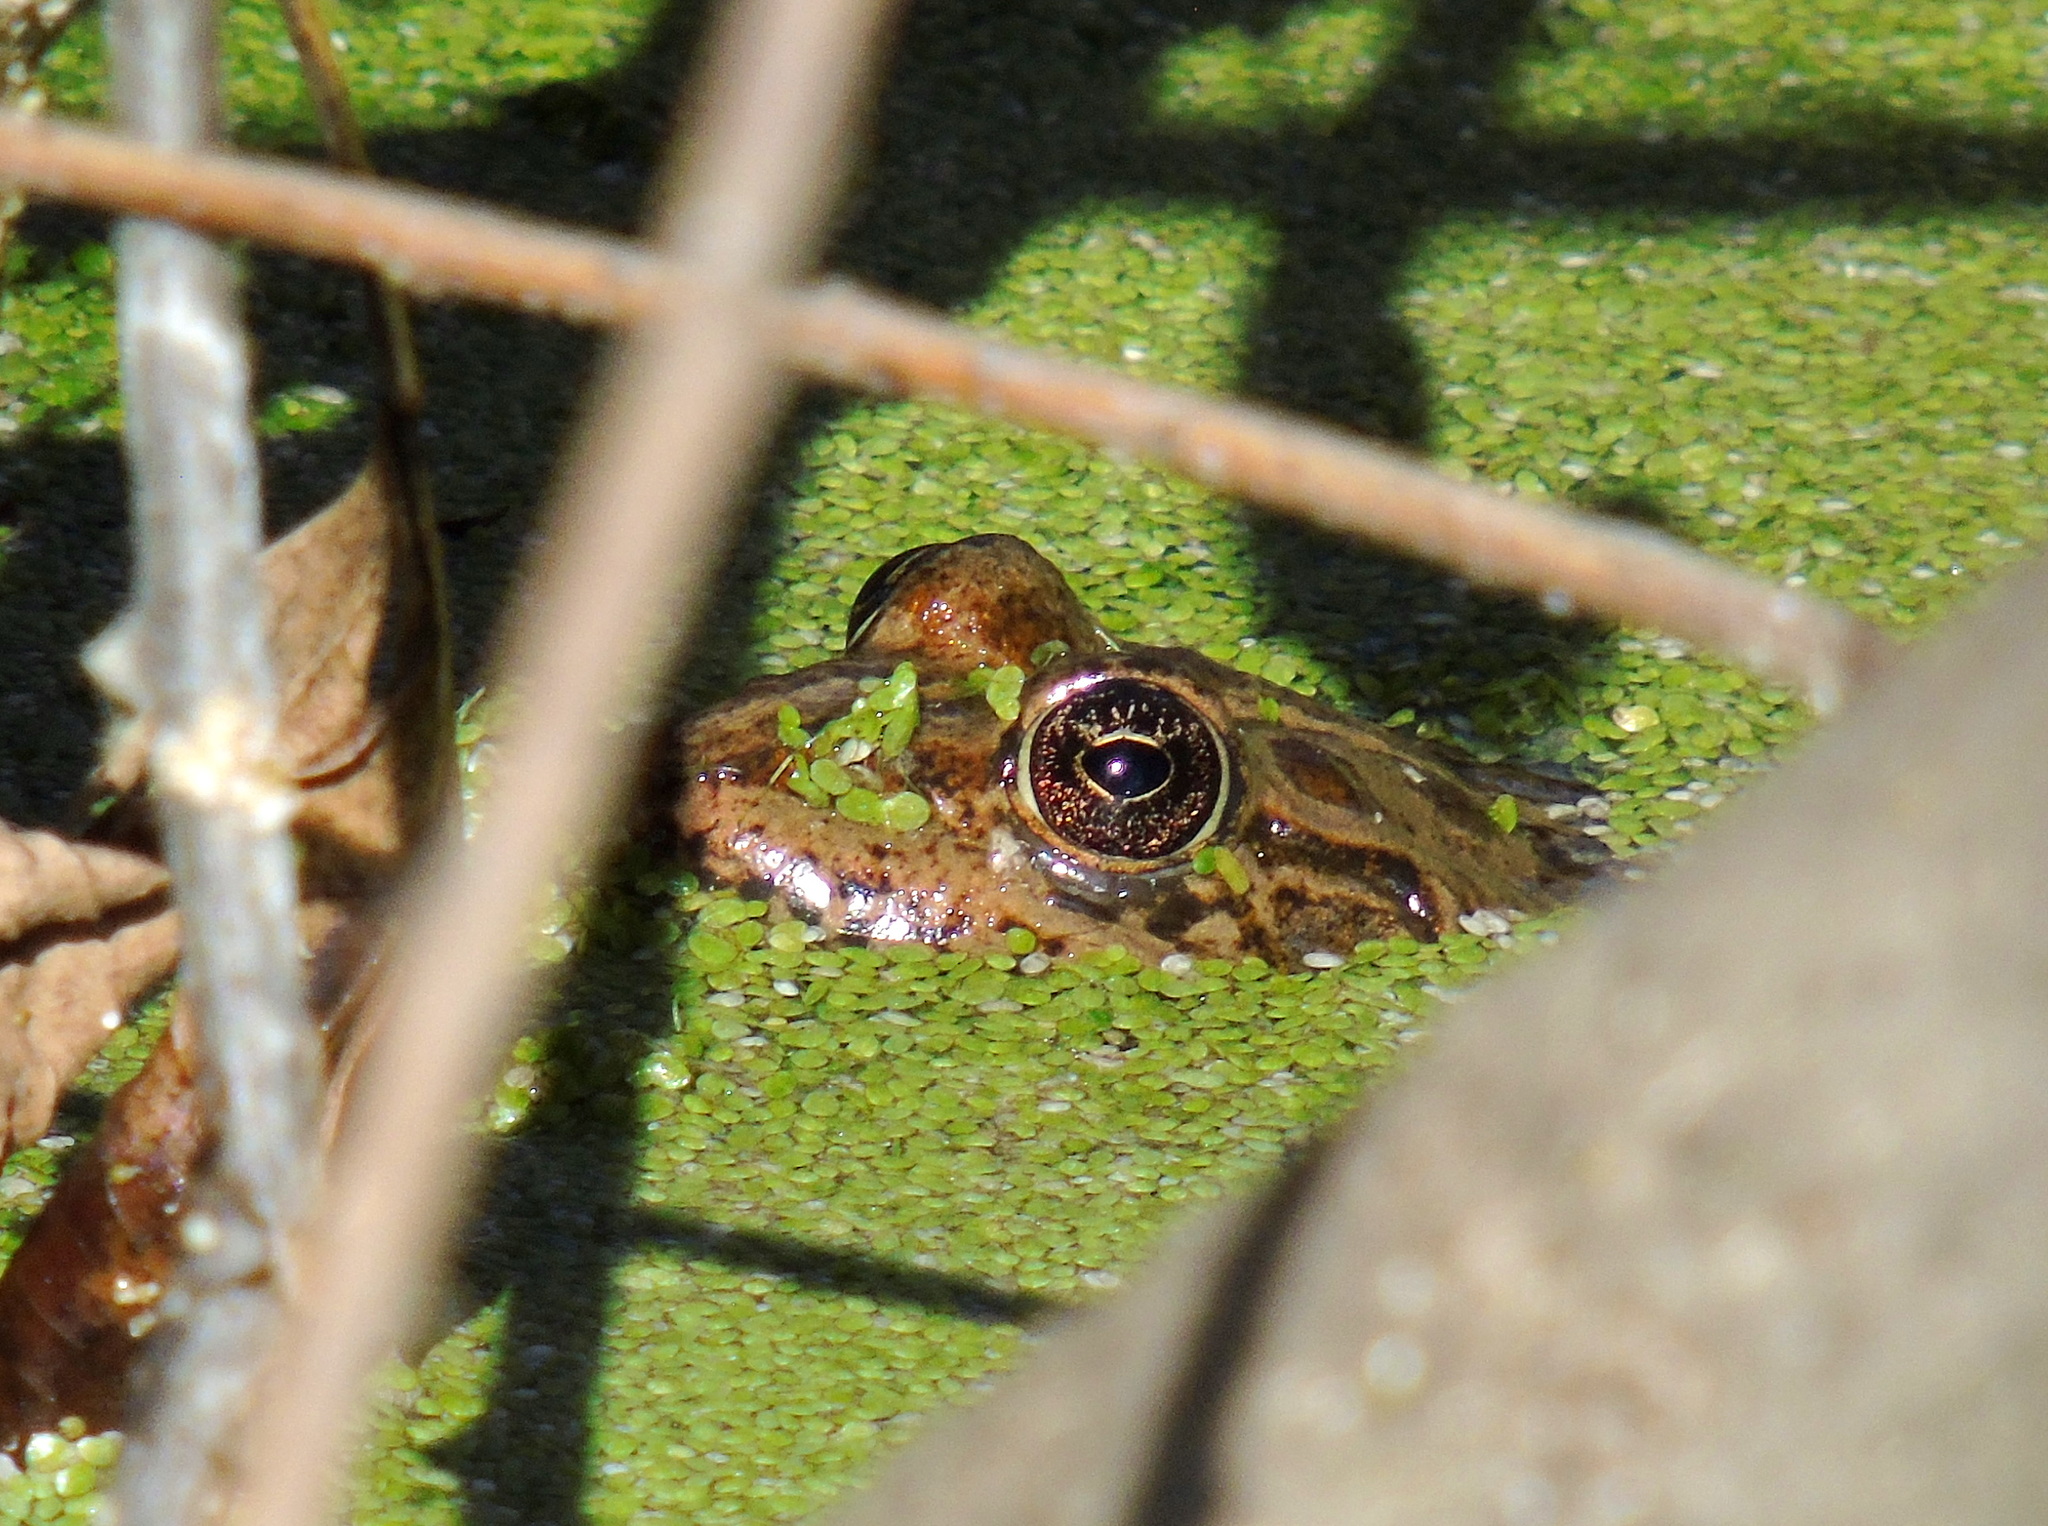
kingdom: Animalia
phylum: Chordata
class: Amphibia
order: Anura
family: Ranidae
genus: Pelophylax
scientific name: Pelophylax ridibundus
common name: Marsh frog
